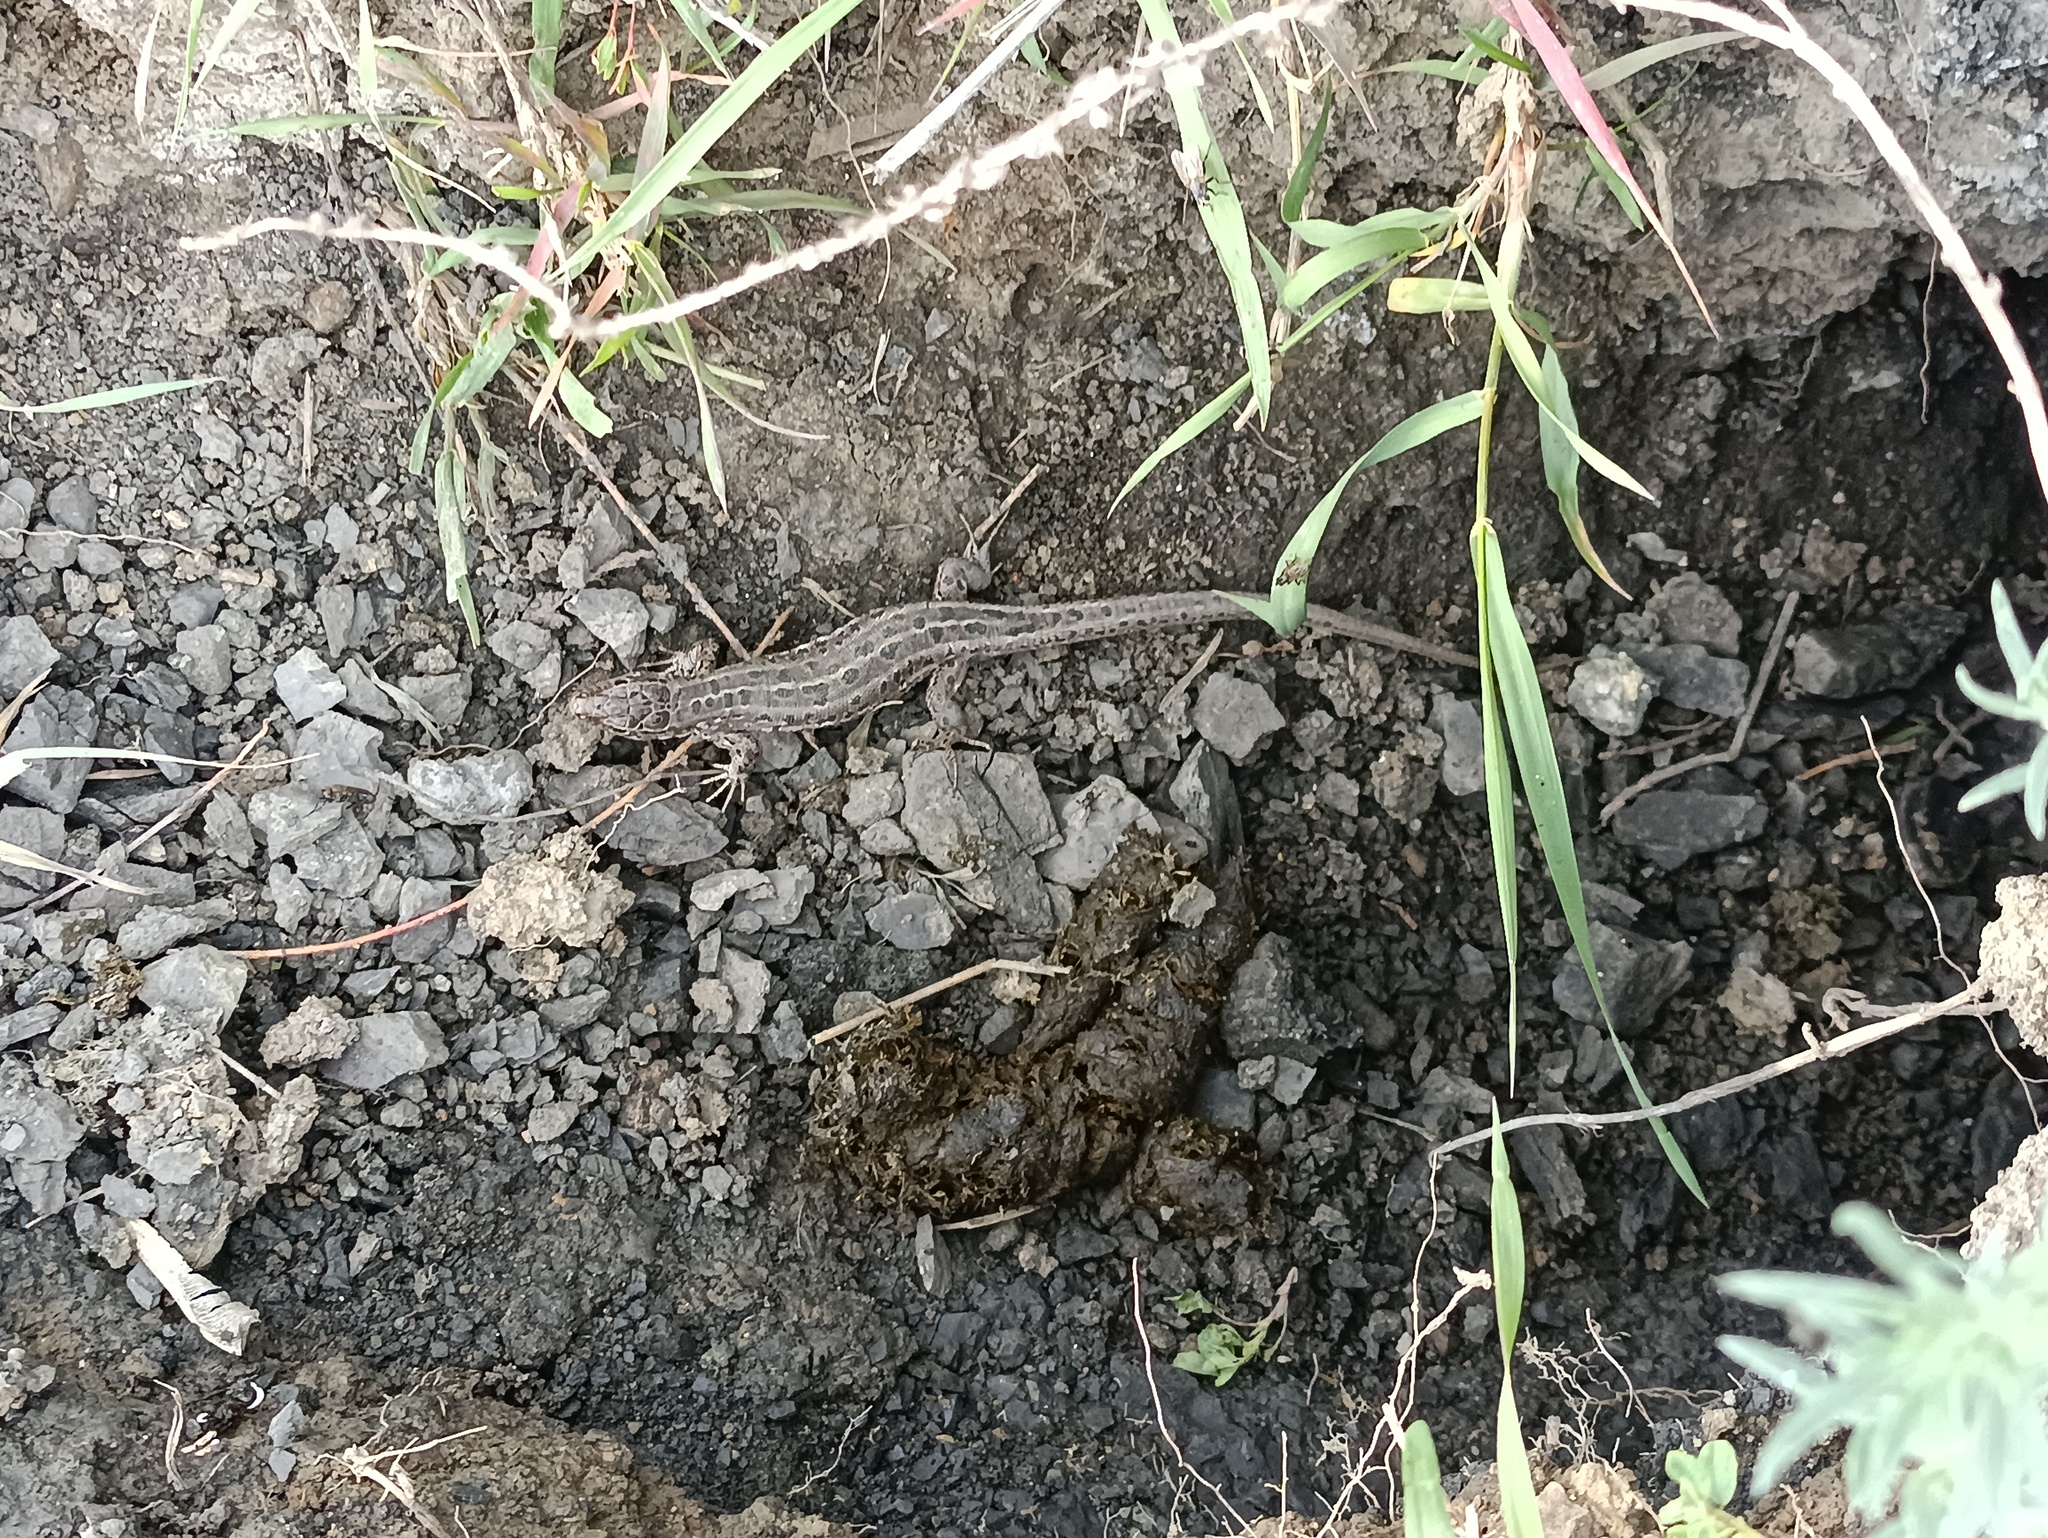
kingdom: Animalia
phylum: Chordata
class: Squamata
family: Lacertidae
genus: Lacerta
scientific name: Lacerta agilis
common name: Sand lizard
